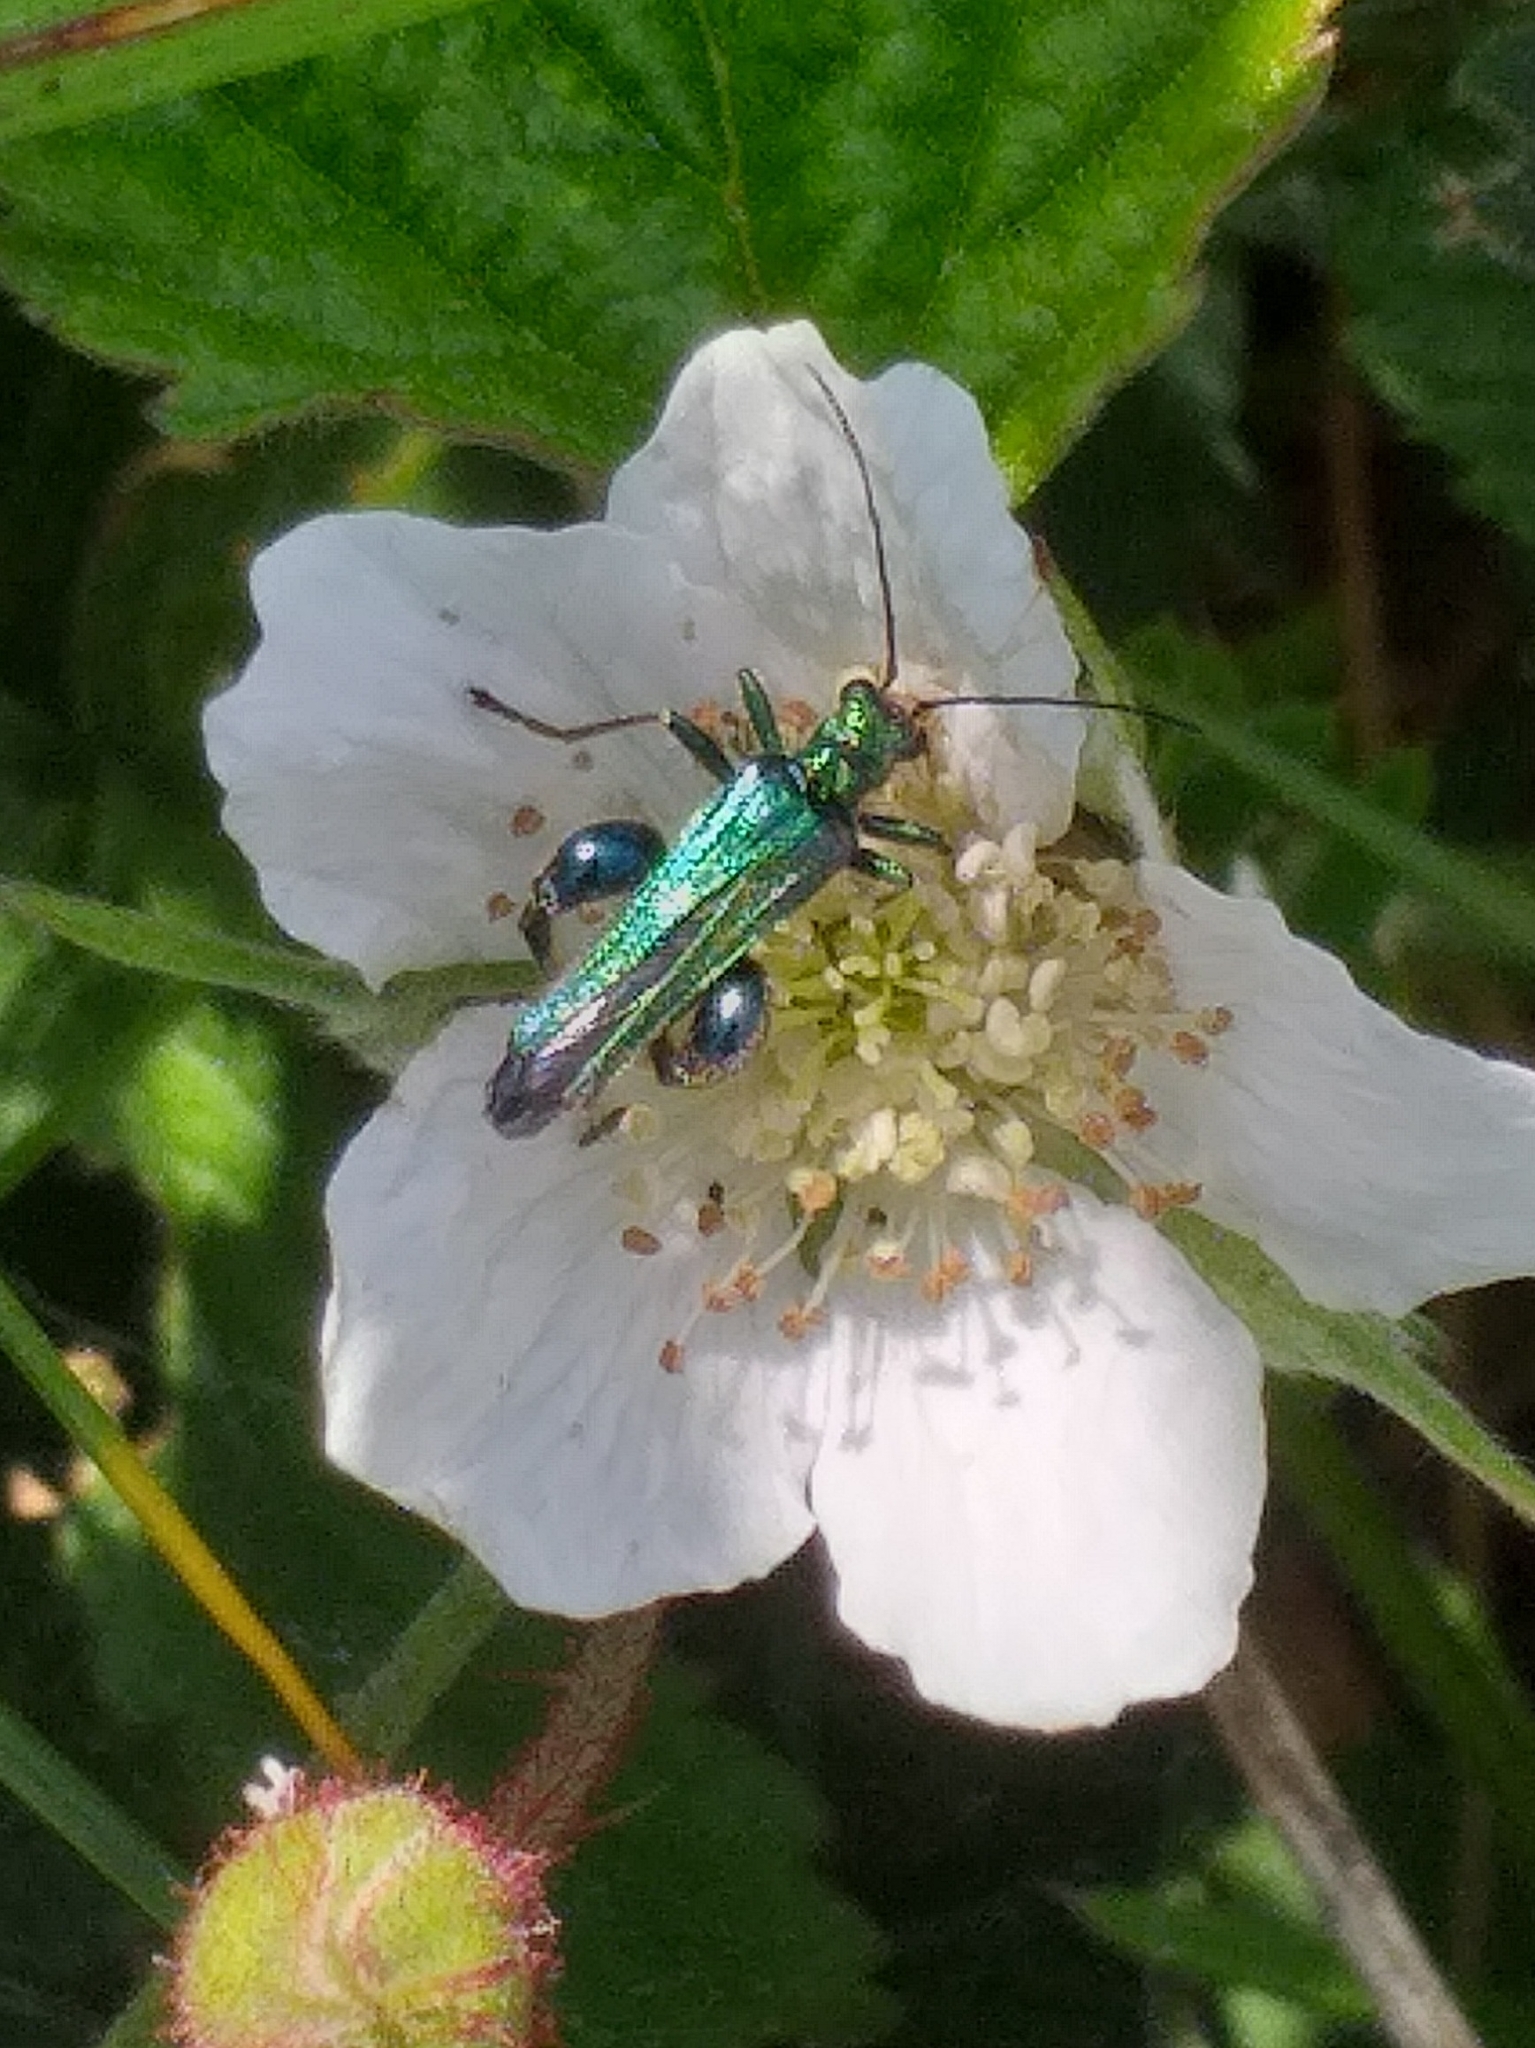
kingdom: Animalia
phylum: Arthropoda
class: Insecta
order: Coleoptera
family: Oedemeridae
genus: Oedemera
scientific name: Oedemera nobilis
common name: Swollen-thighed beetle
